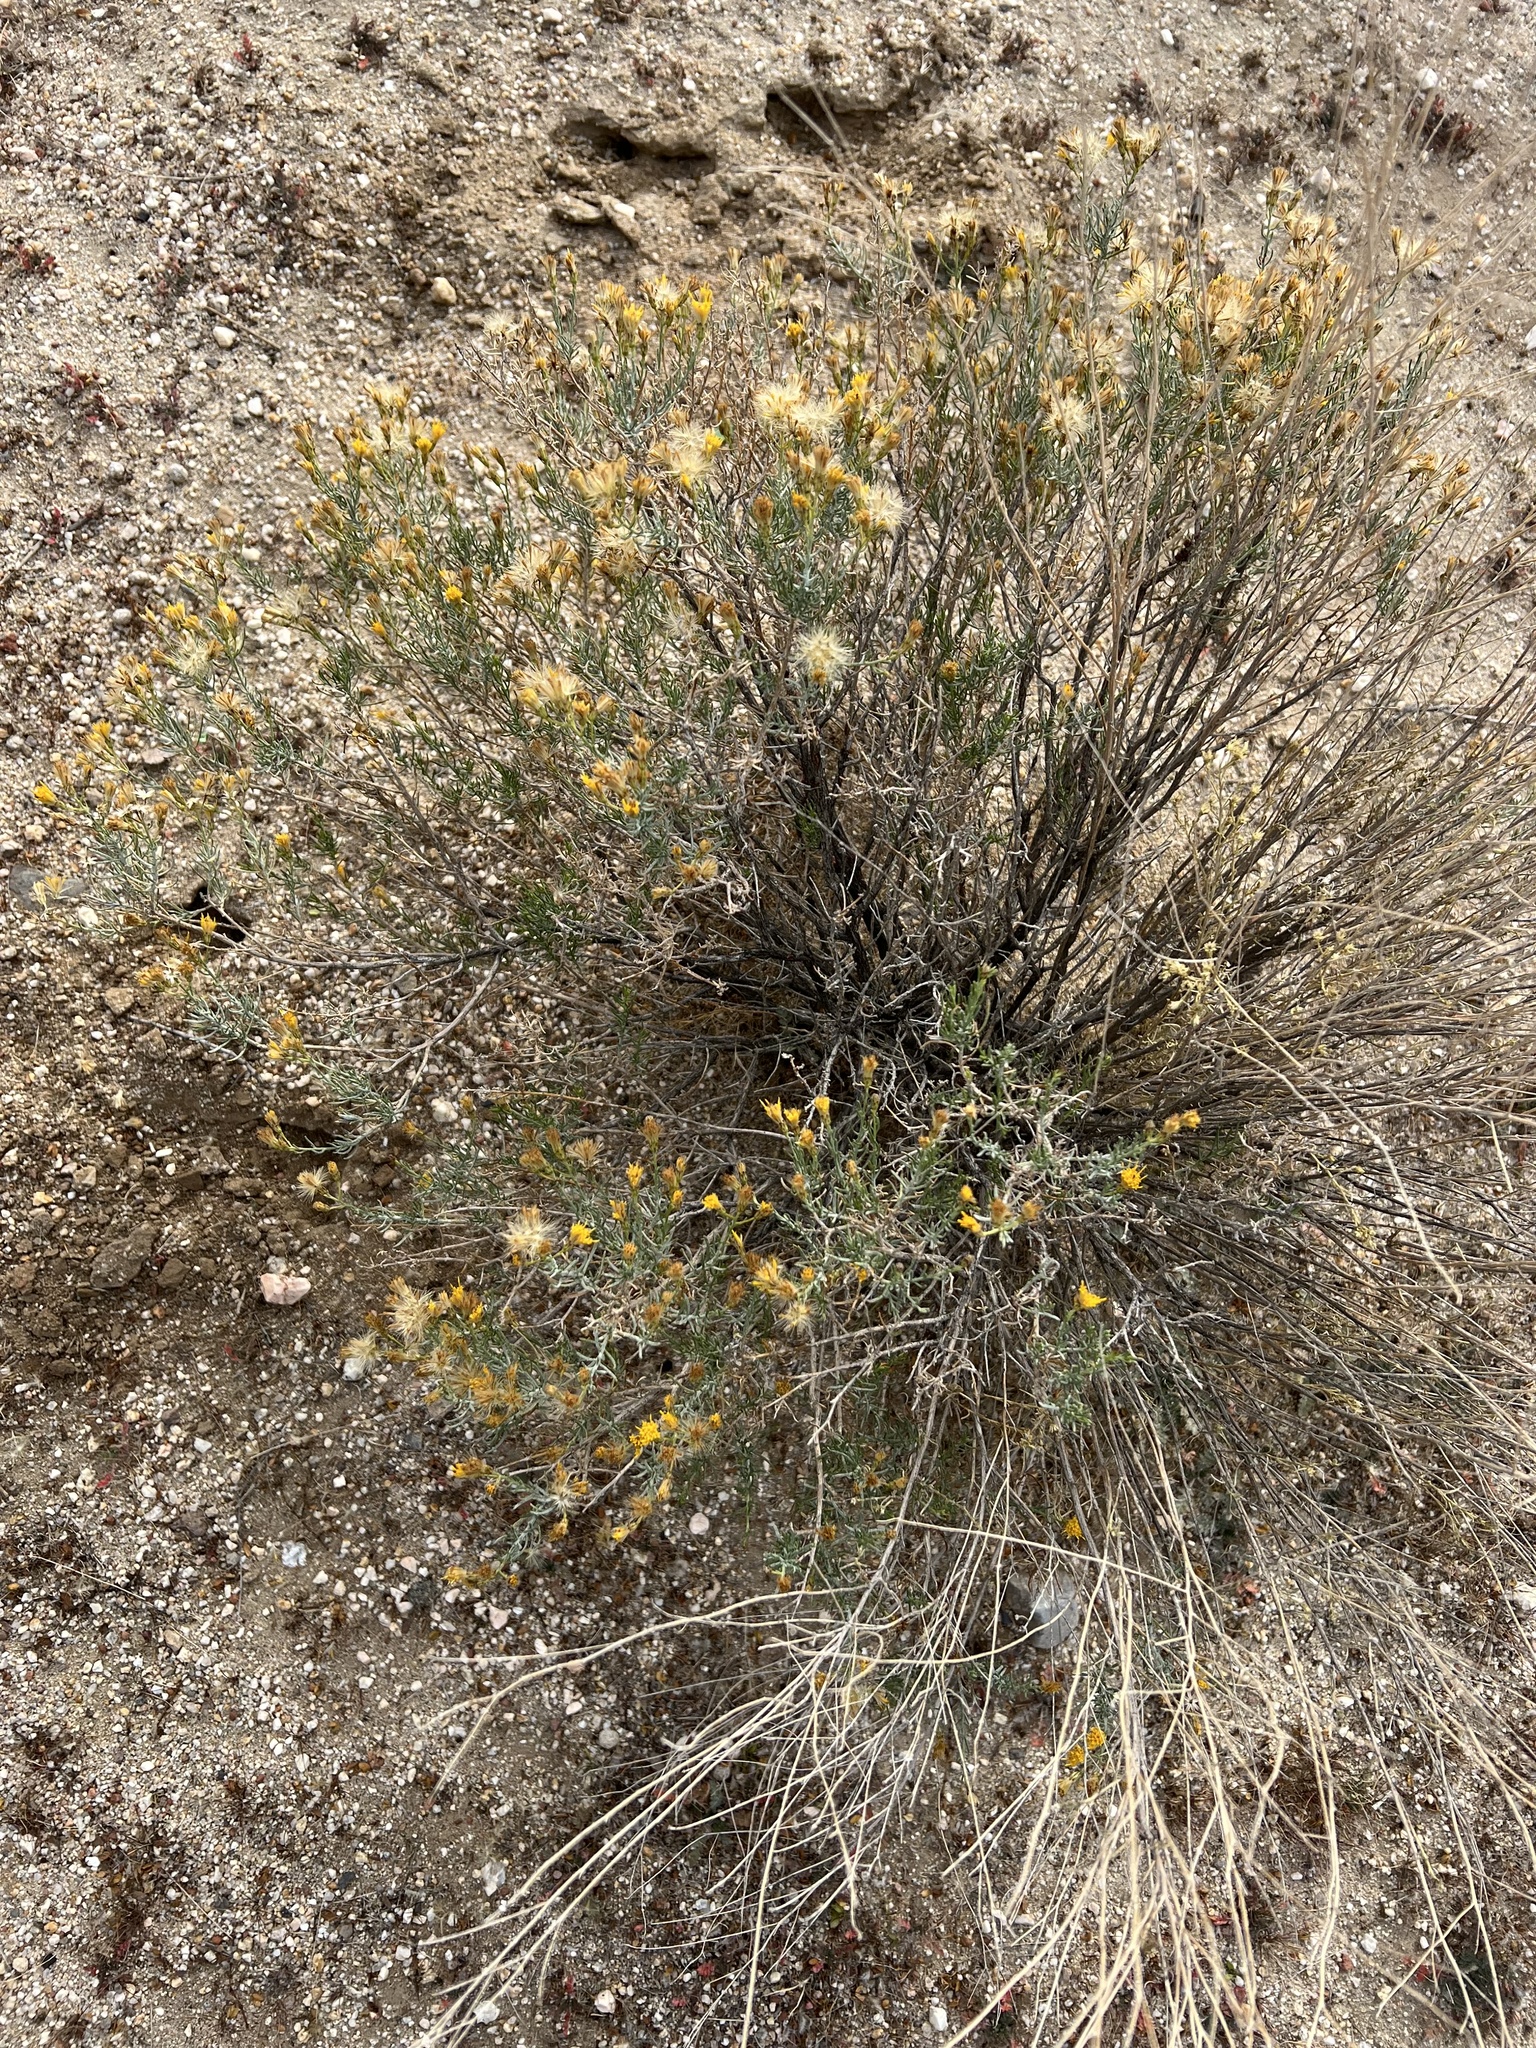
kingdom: Plantae
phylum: Tracheophyta
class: Magnoliopsida
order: Asterales
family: Asteraceae
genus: Ericameria
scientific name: Ericameria brachylepis
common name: Boundary goldenbush
